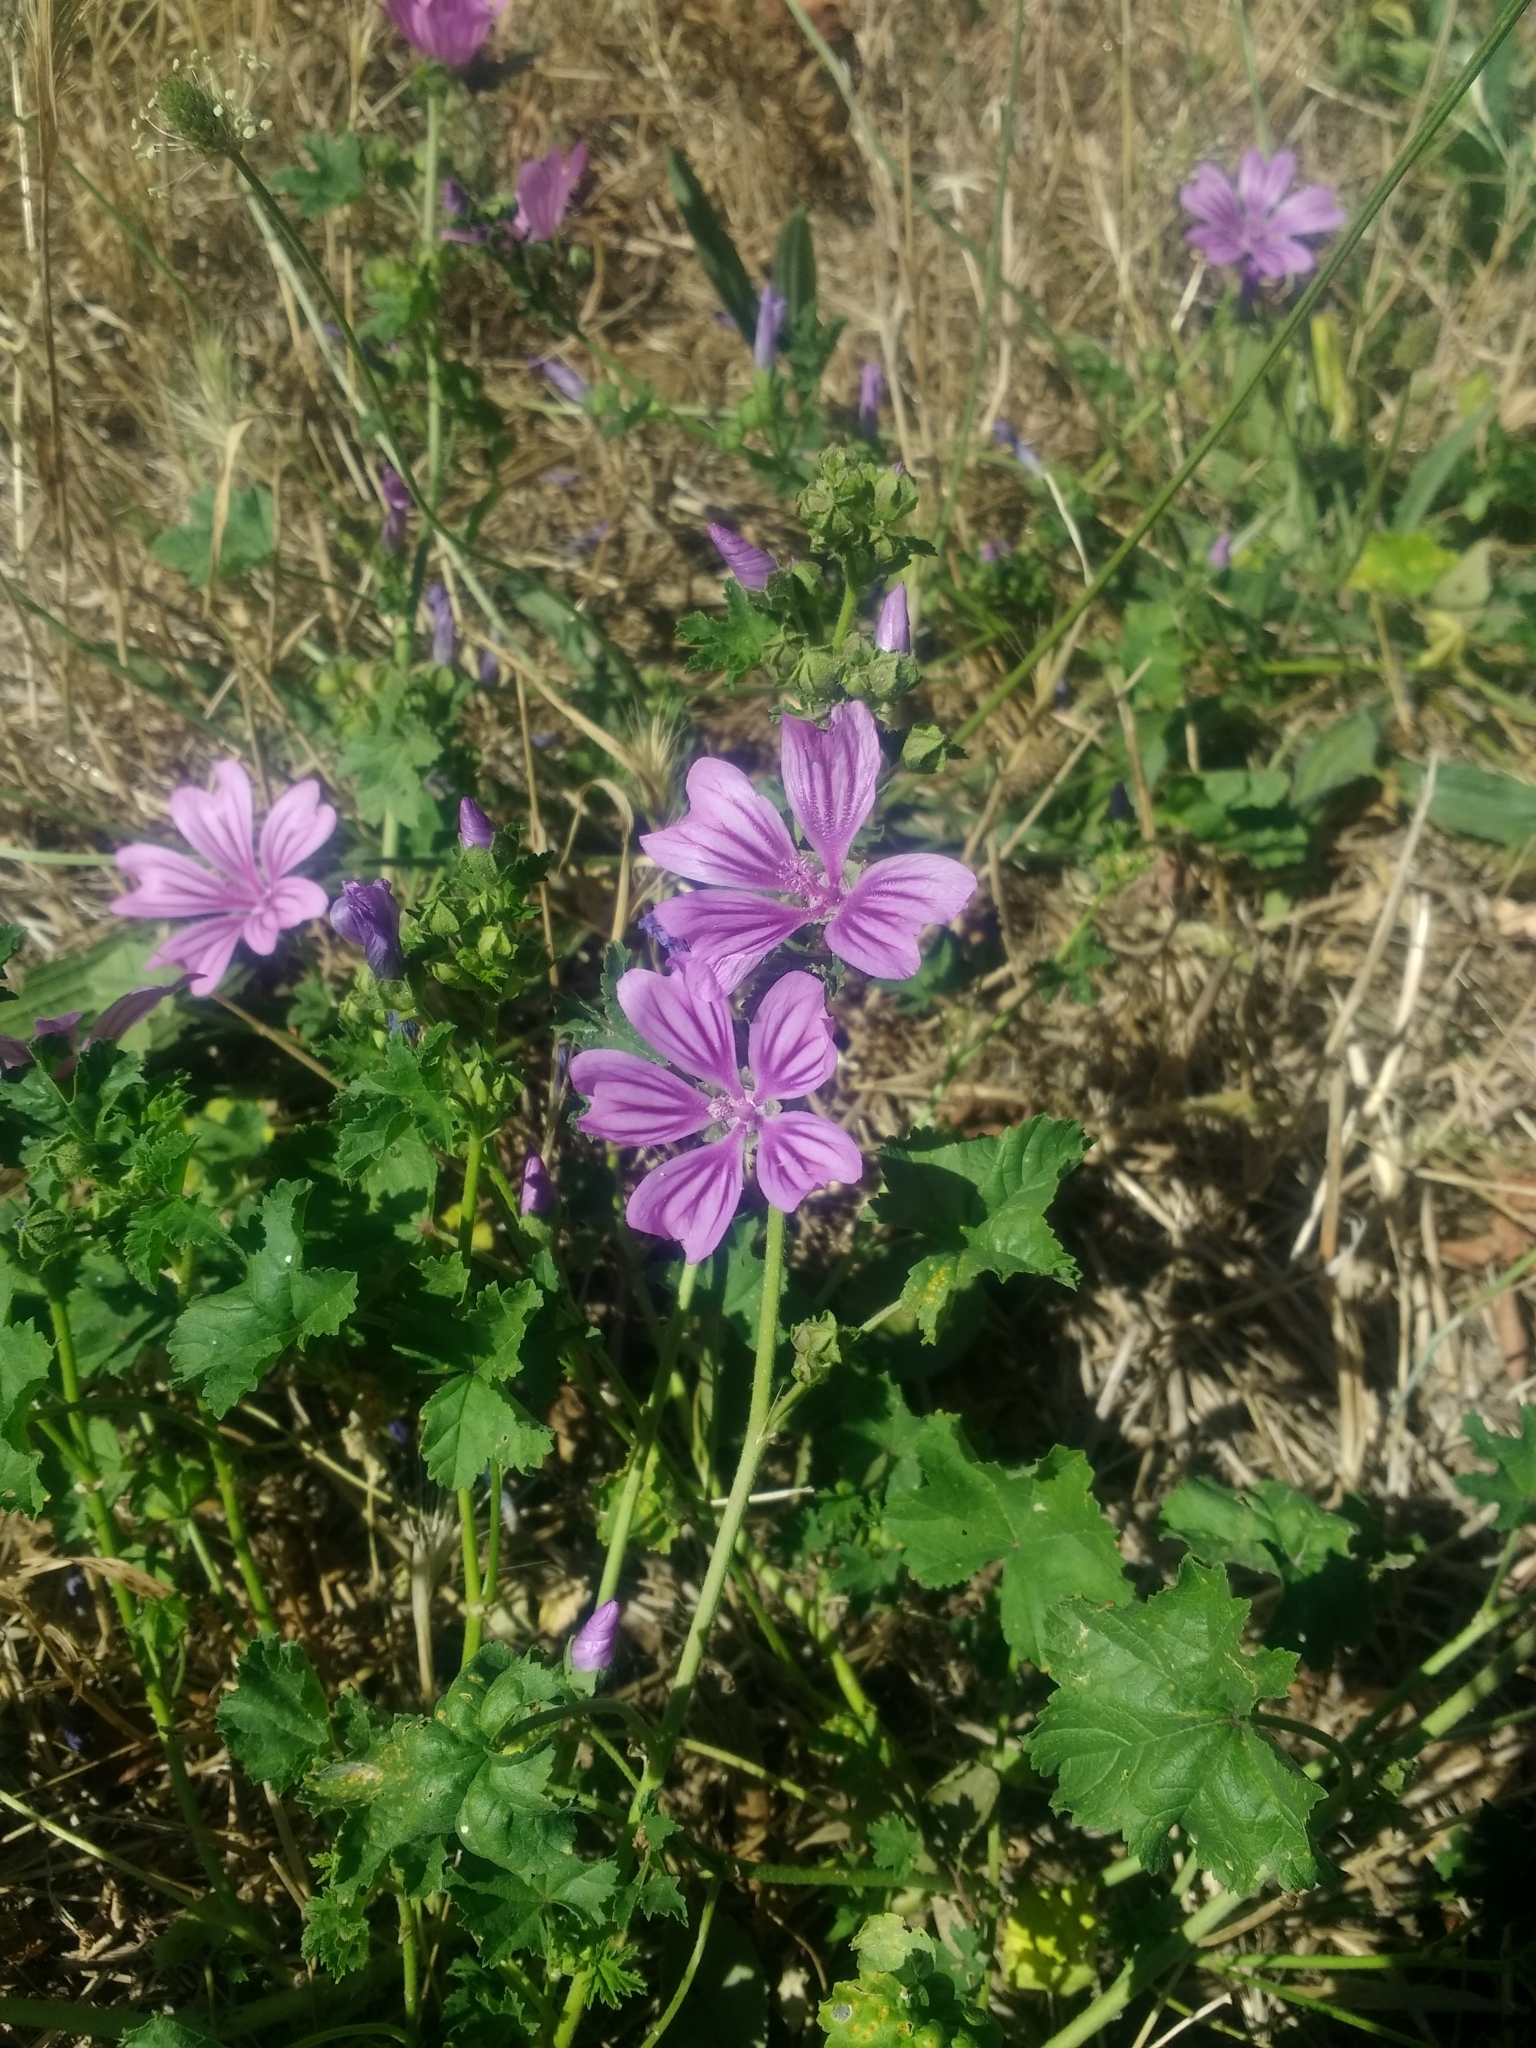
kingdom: Plantae
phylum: Tracheophyta
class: Magnoliopsida
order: Malvales
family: Malvaceae
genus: Malva
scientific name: Malva sylvestris
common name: Common mallow
